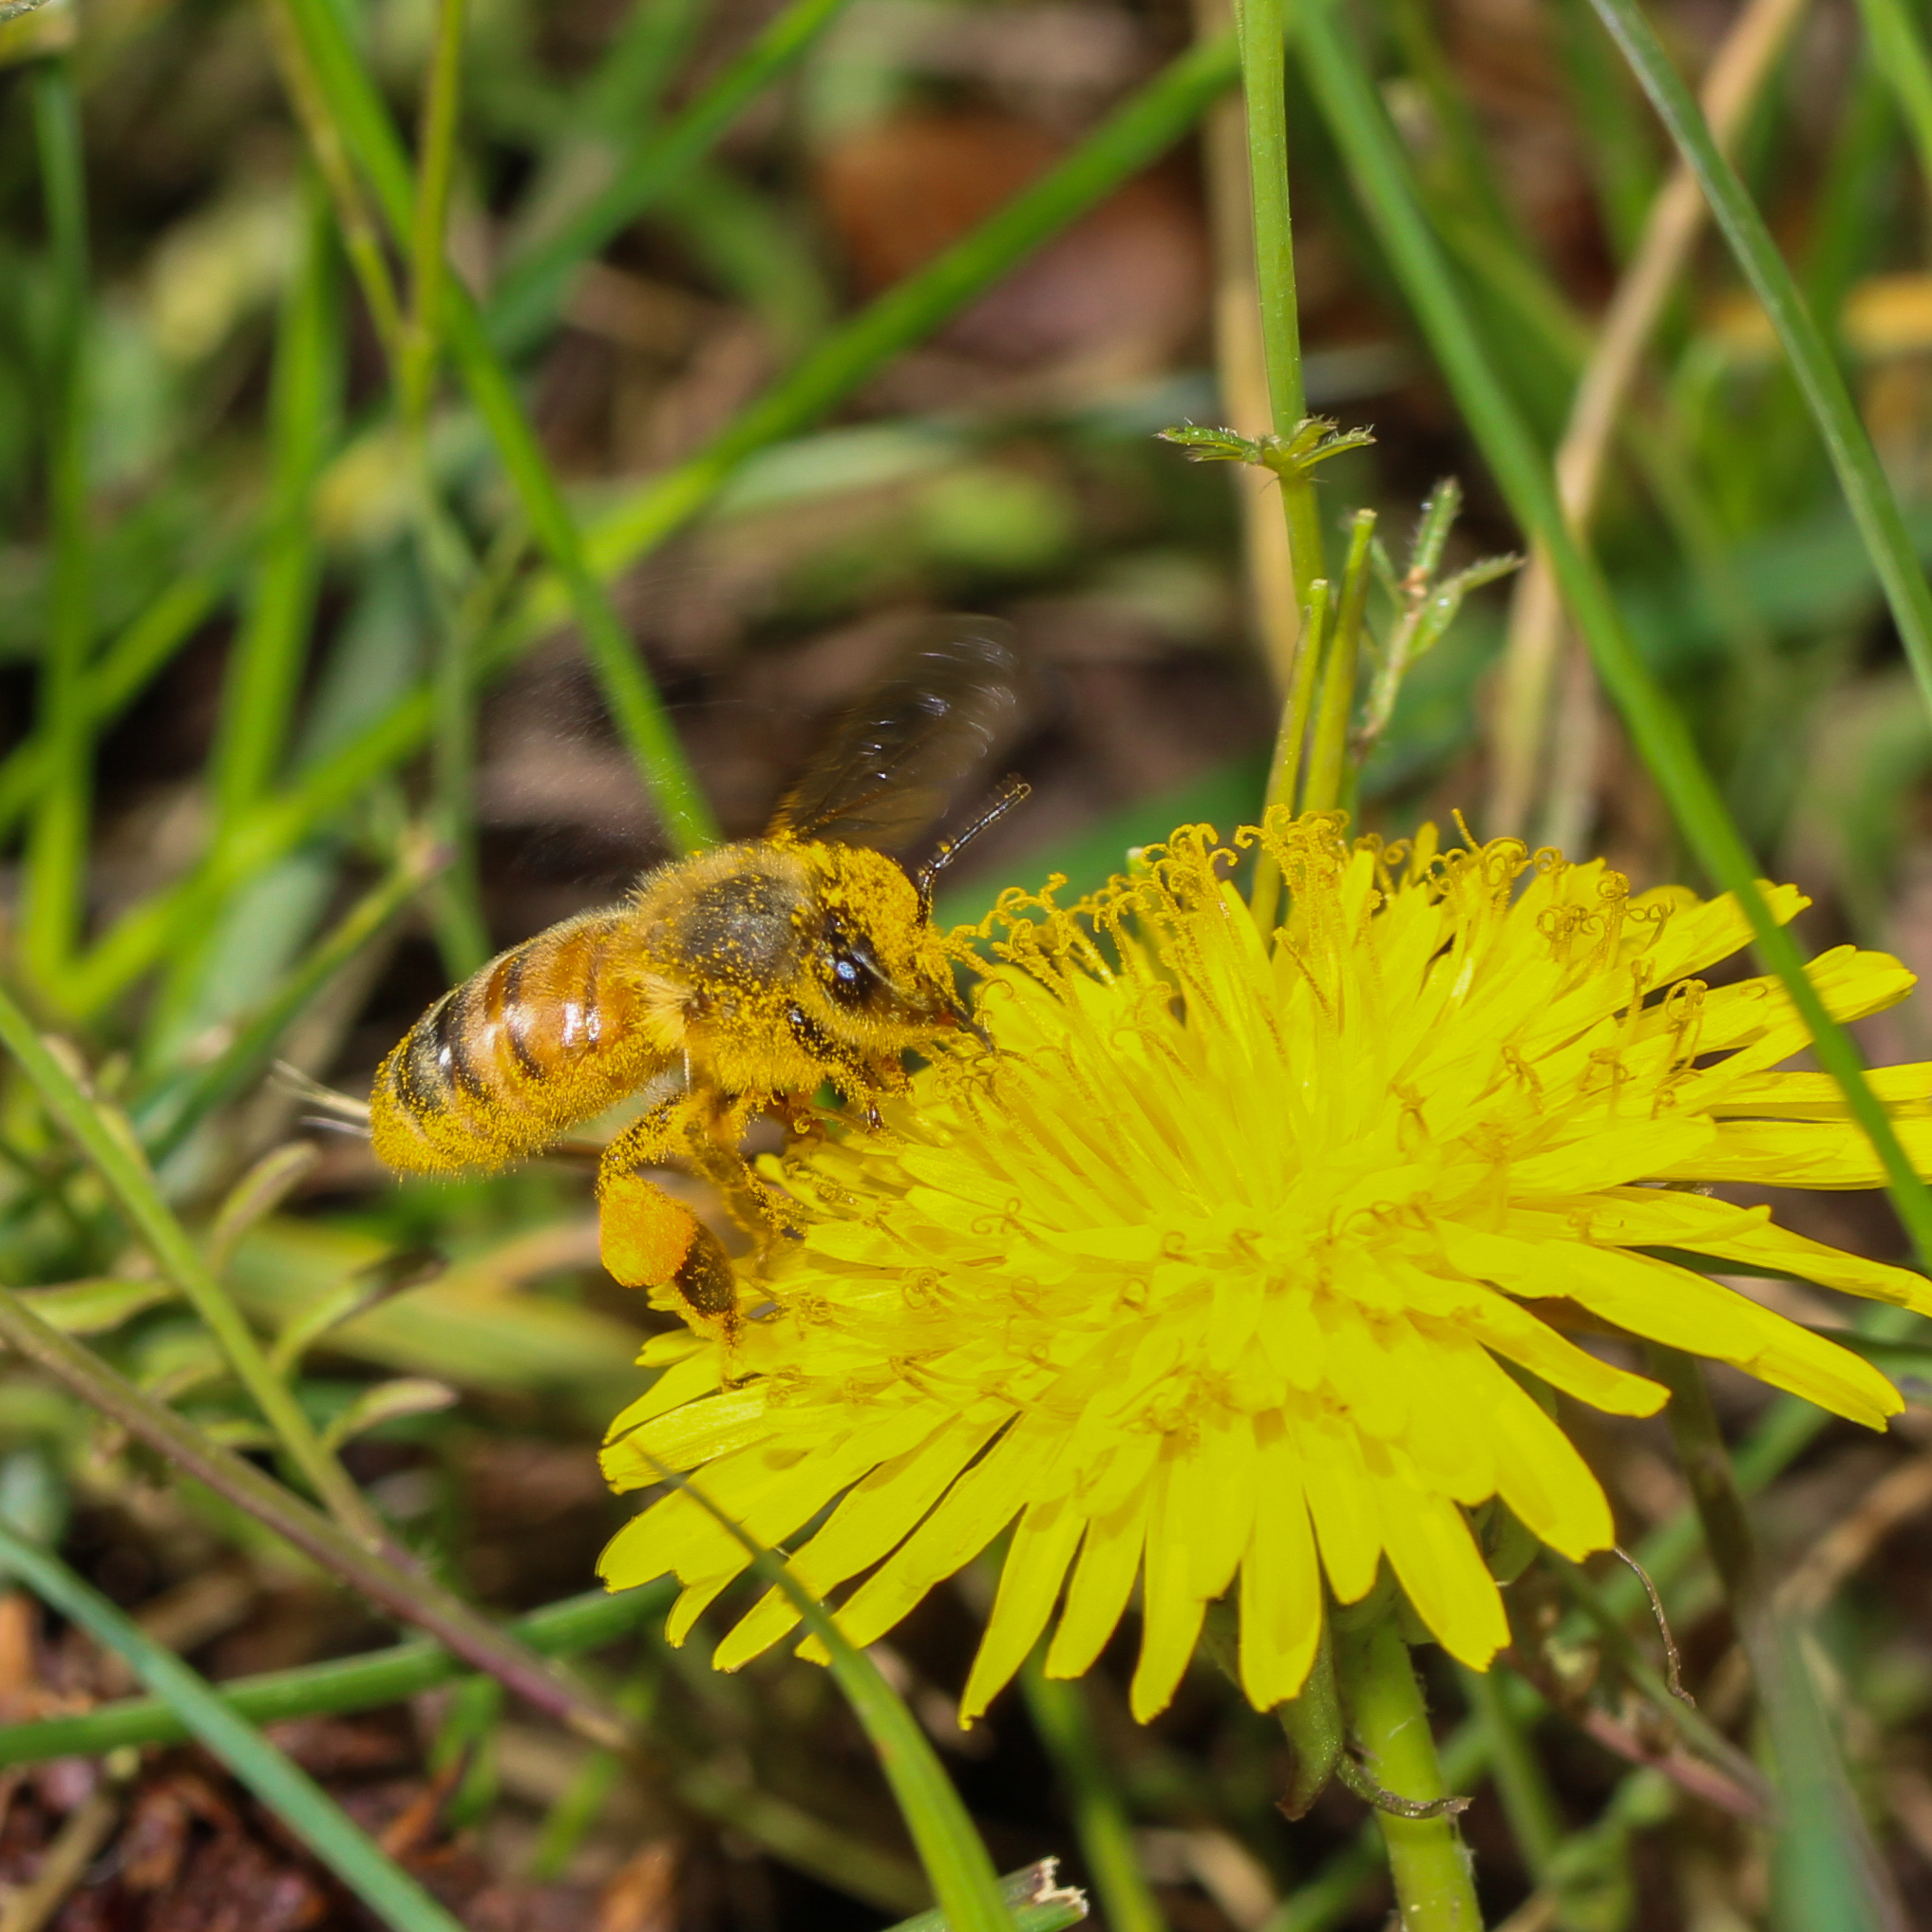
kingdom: Animalia
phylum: Arthropoda
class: Insecta
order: Hymenoptera
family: Apidae
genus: Apis
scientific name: Apis mellifera
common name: Honey bee
